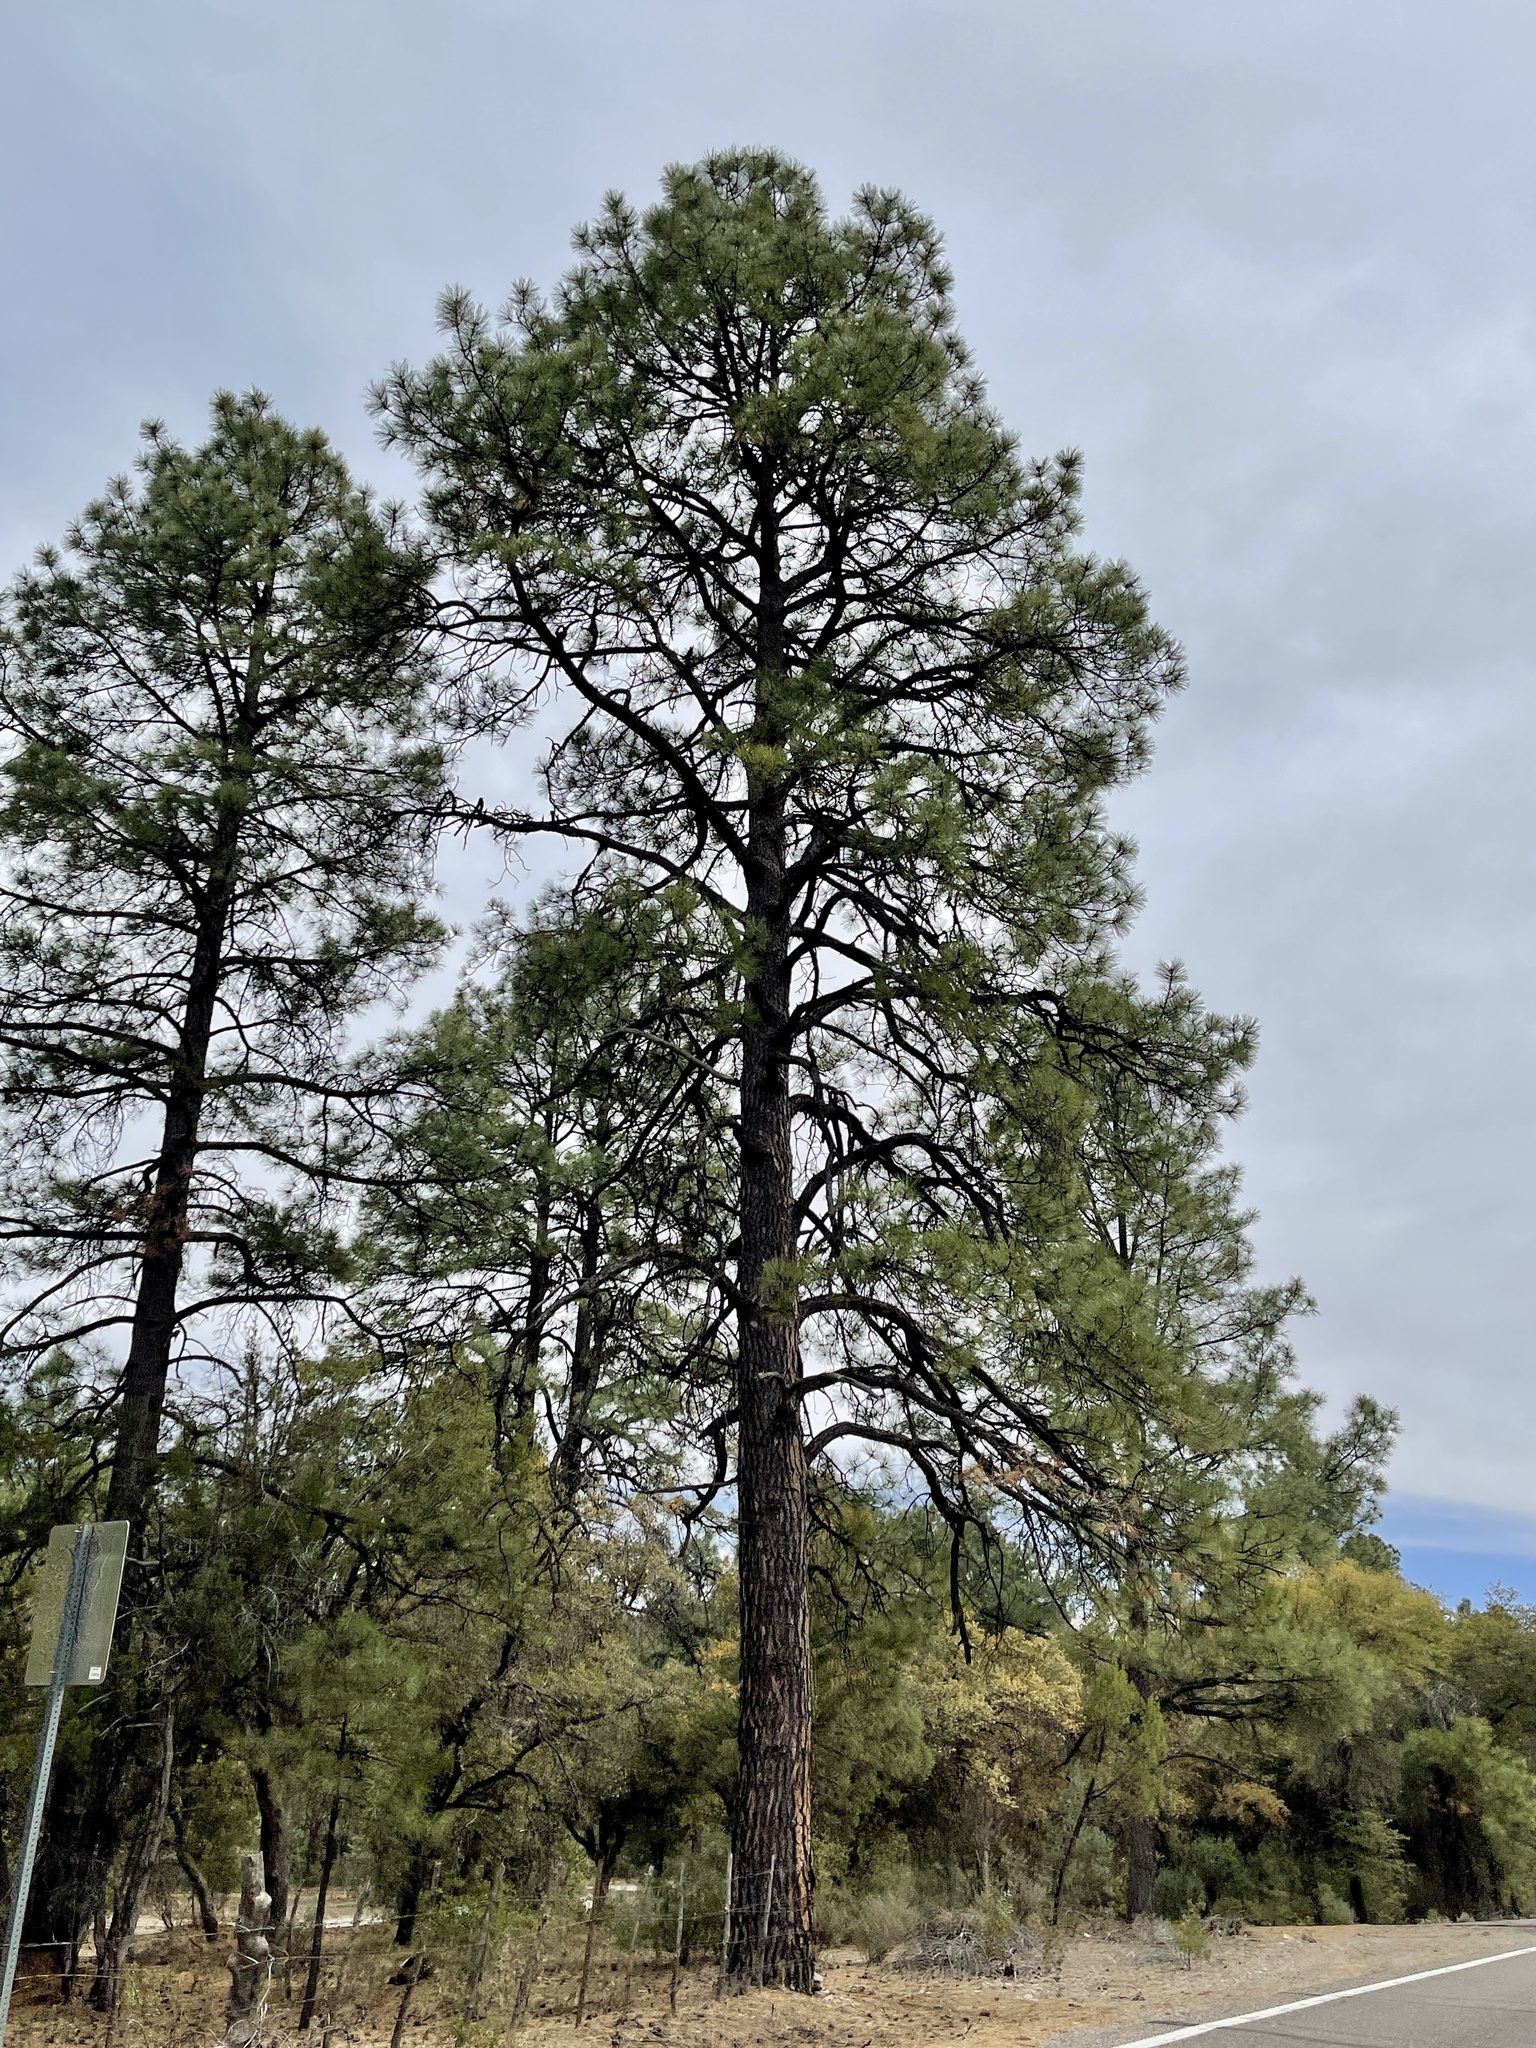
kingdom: Plantae
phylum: Tracheophyta
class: Pinopsida
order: Pinales
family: Pinaceae
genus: Pinus
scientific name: Pinus ponderosa
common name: Western yellow-pine
